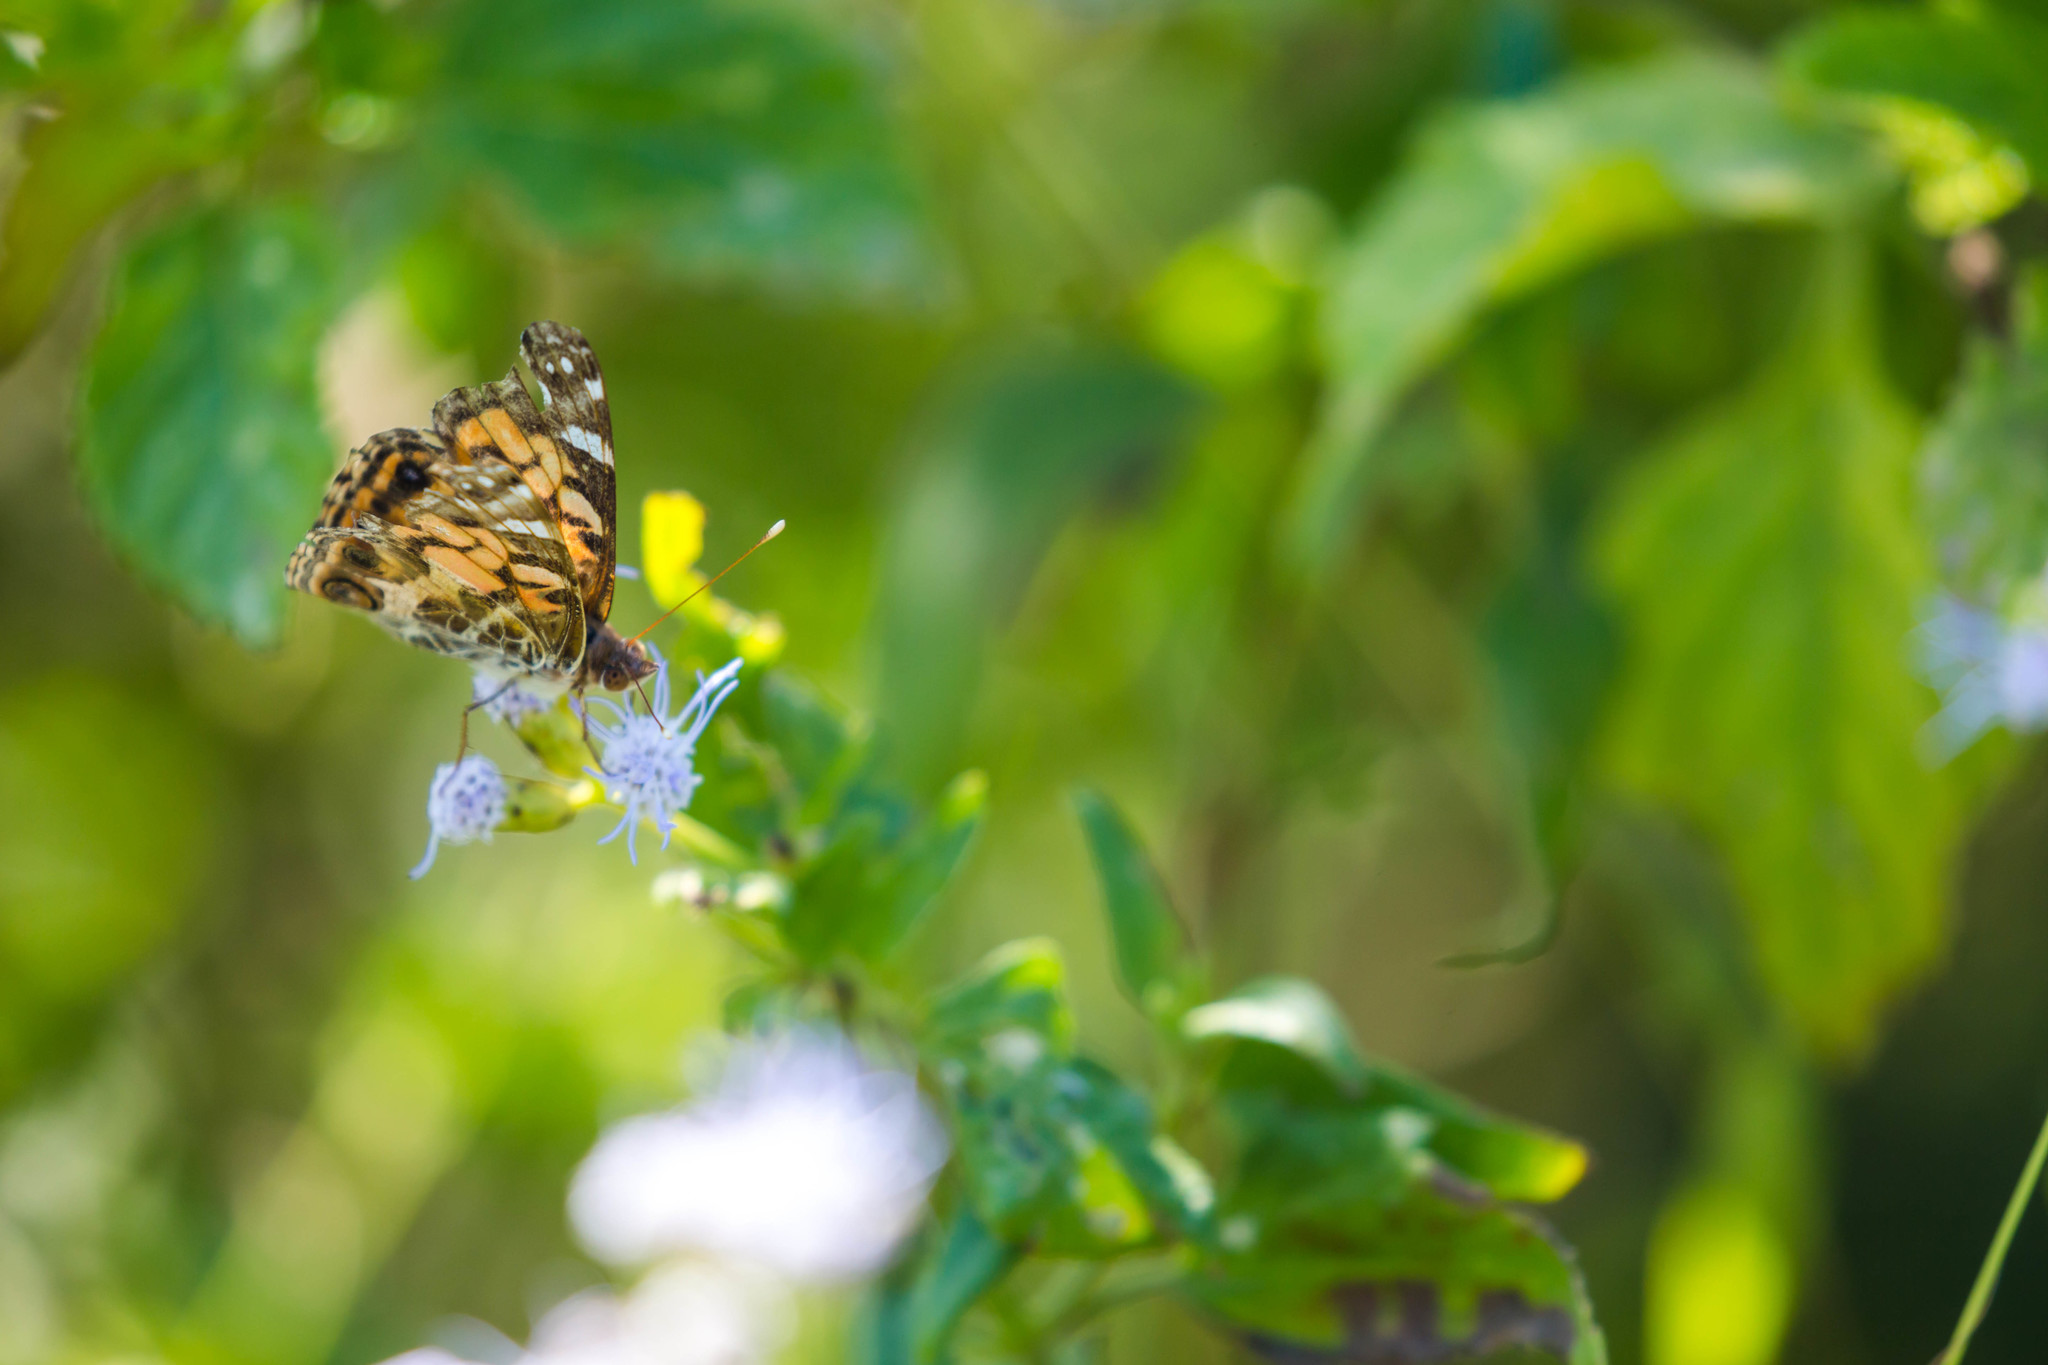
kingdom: Animalia
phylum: Arthropoda
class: Insecta
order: Lepidoptera
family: Nymphalidae
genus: Vanessa
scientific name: Vanessa virginiensis
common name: American lady
